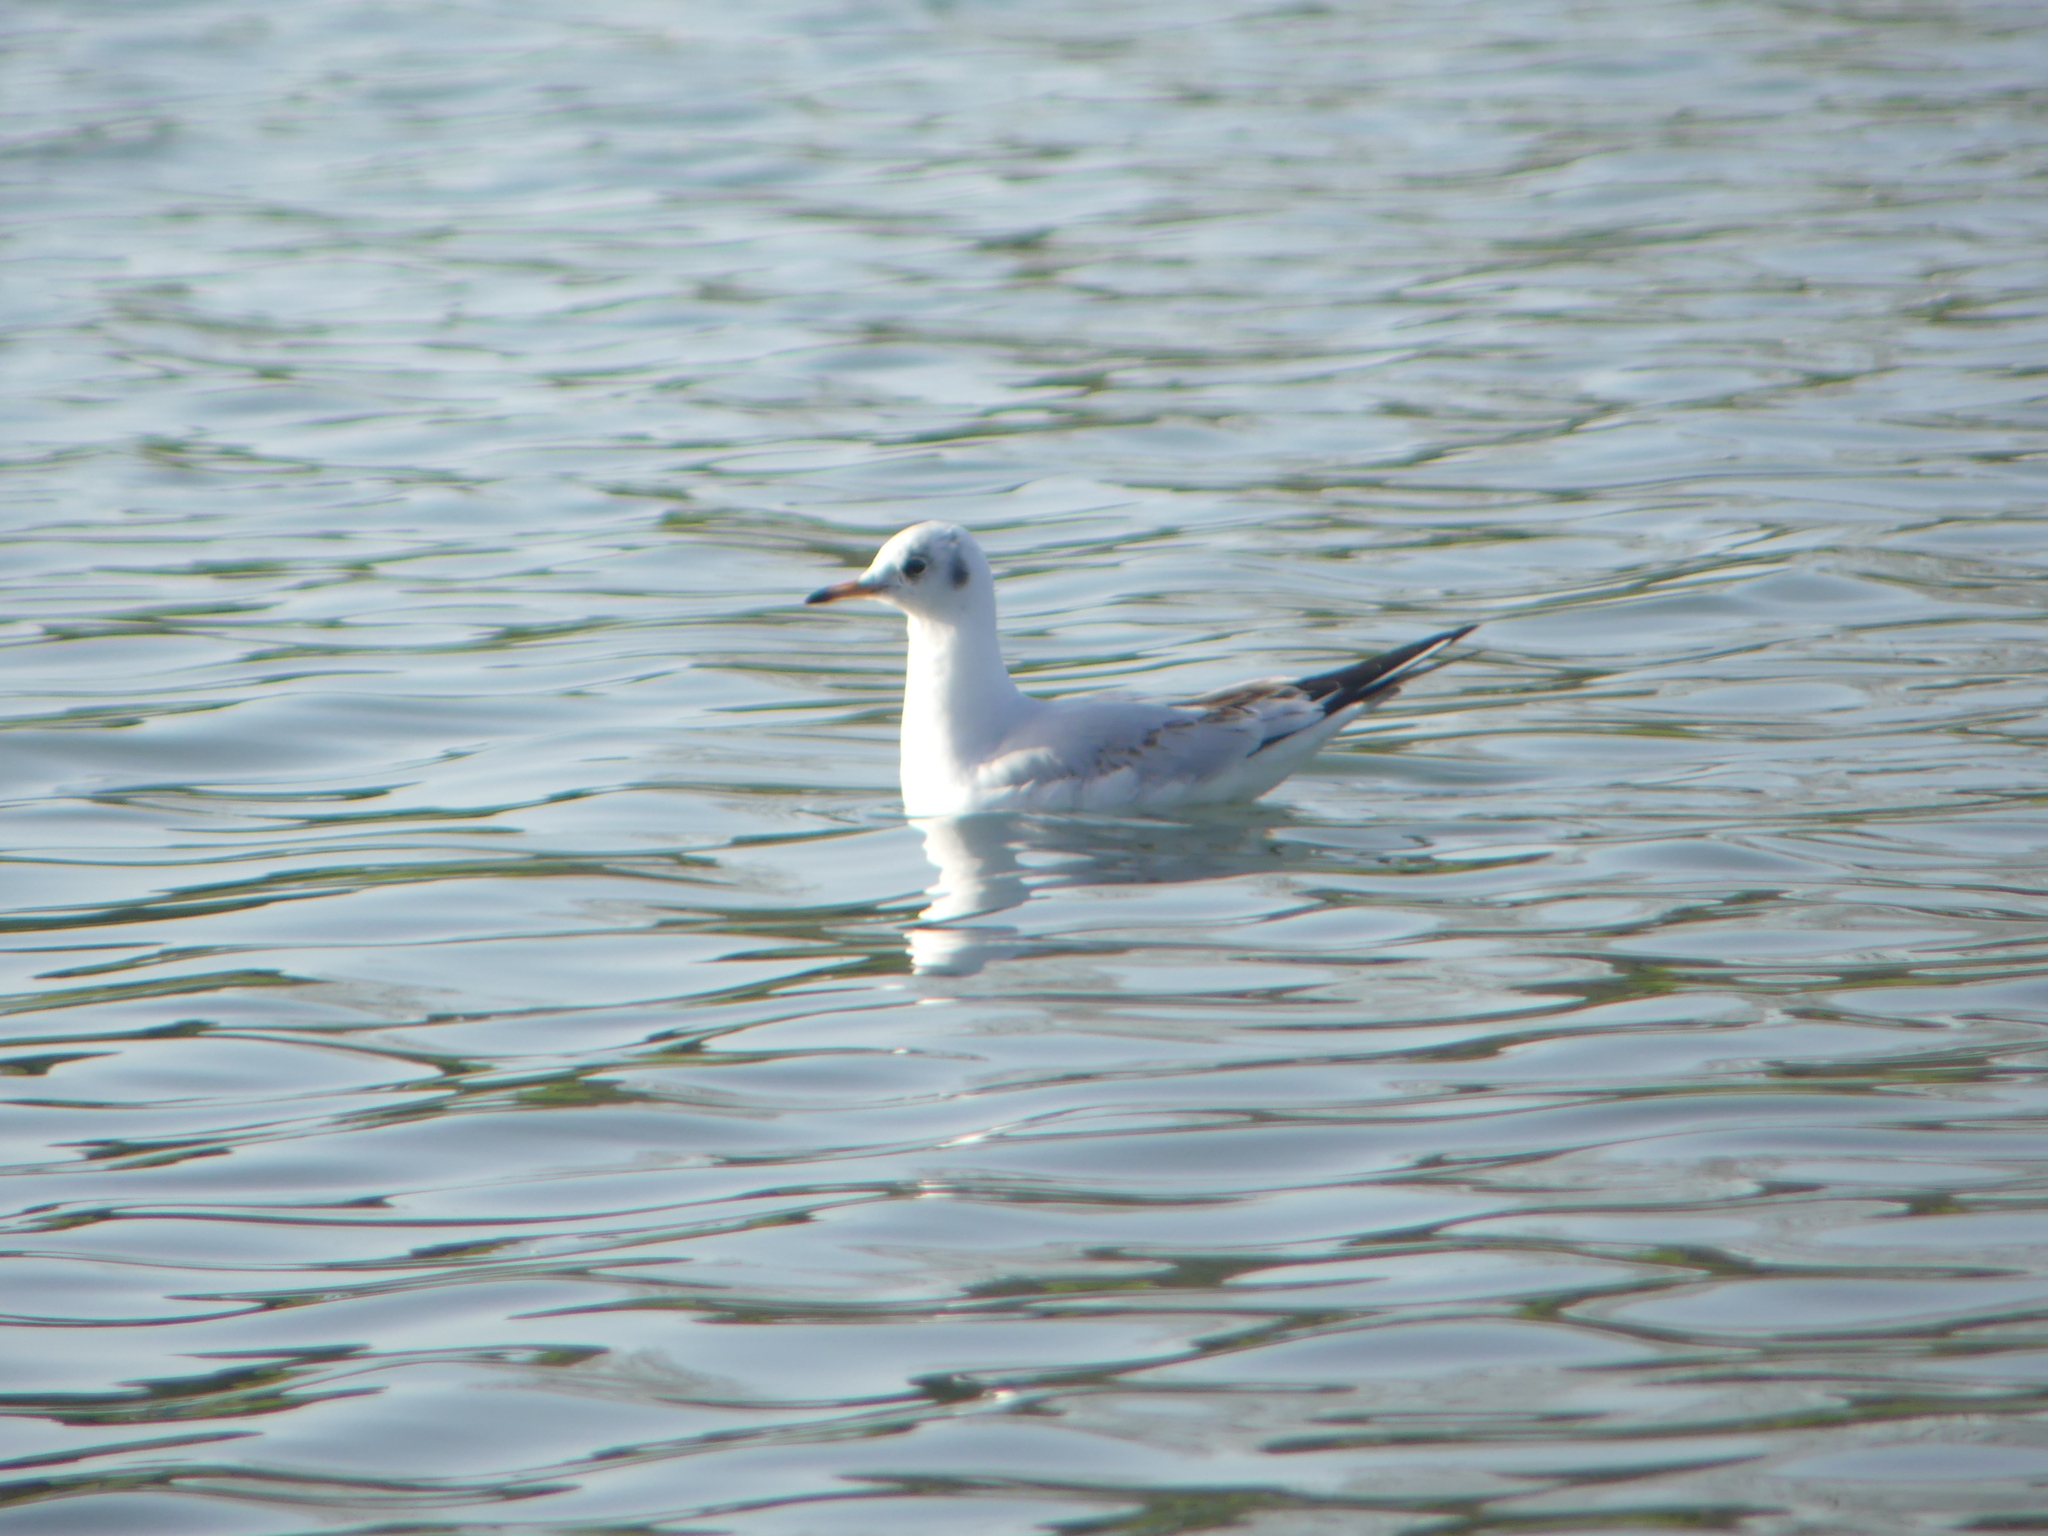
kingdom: Animalia
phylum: Chordata
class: Aves
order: Charadriiformes
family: Laridae
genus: Chroicocephalus
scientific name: Chroicocephalus ridibundus
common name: Black-headed gull
